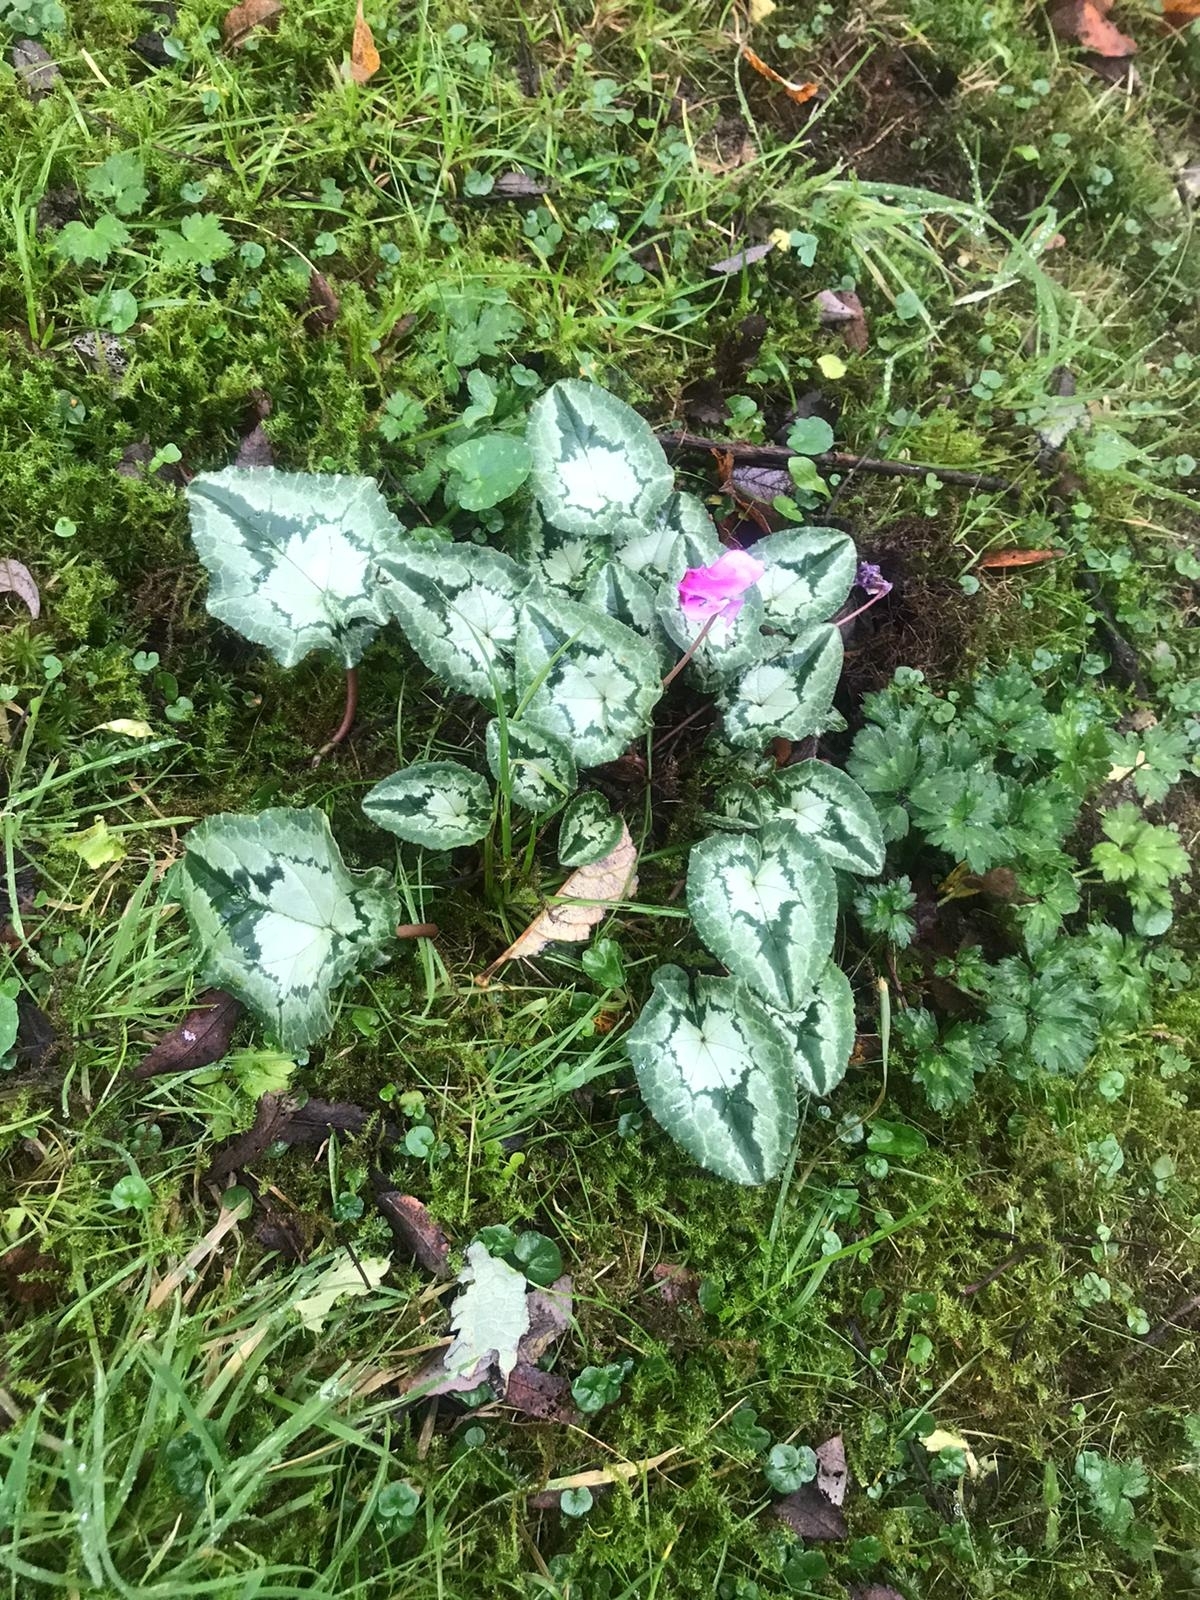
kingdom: Plantae
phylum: Tracheophyta
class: Magnoliopsida
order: Ericales
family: Primulaceae
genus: Cyclamen
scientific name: Cyclamen hederifolium
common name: Sowbread
